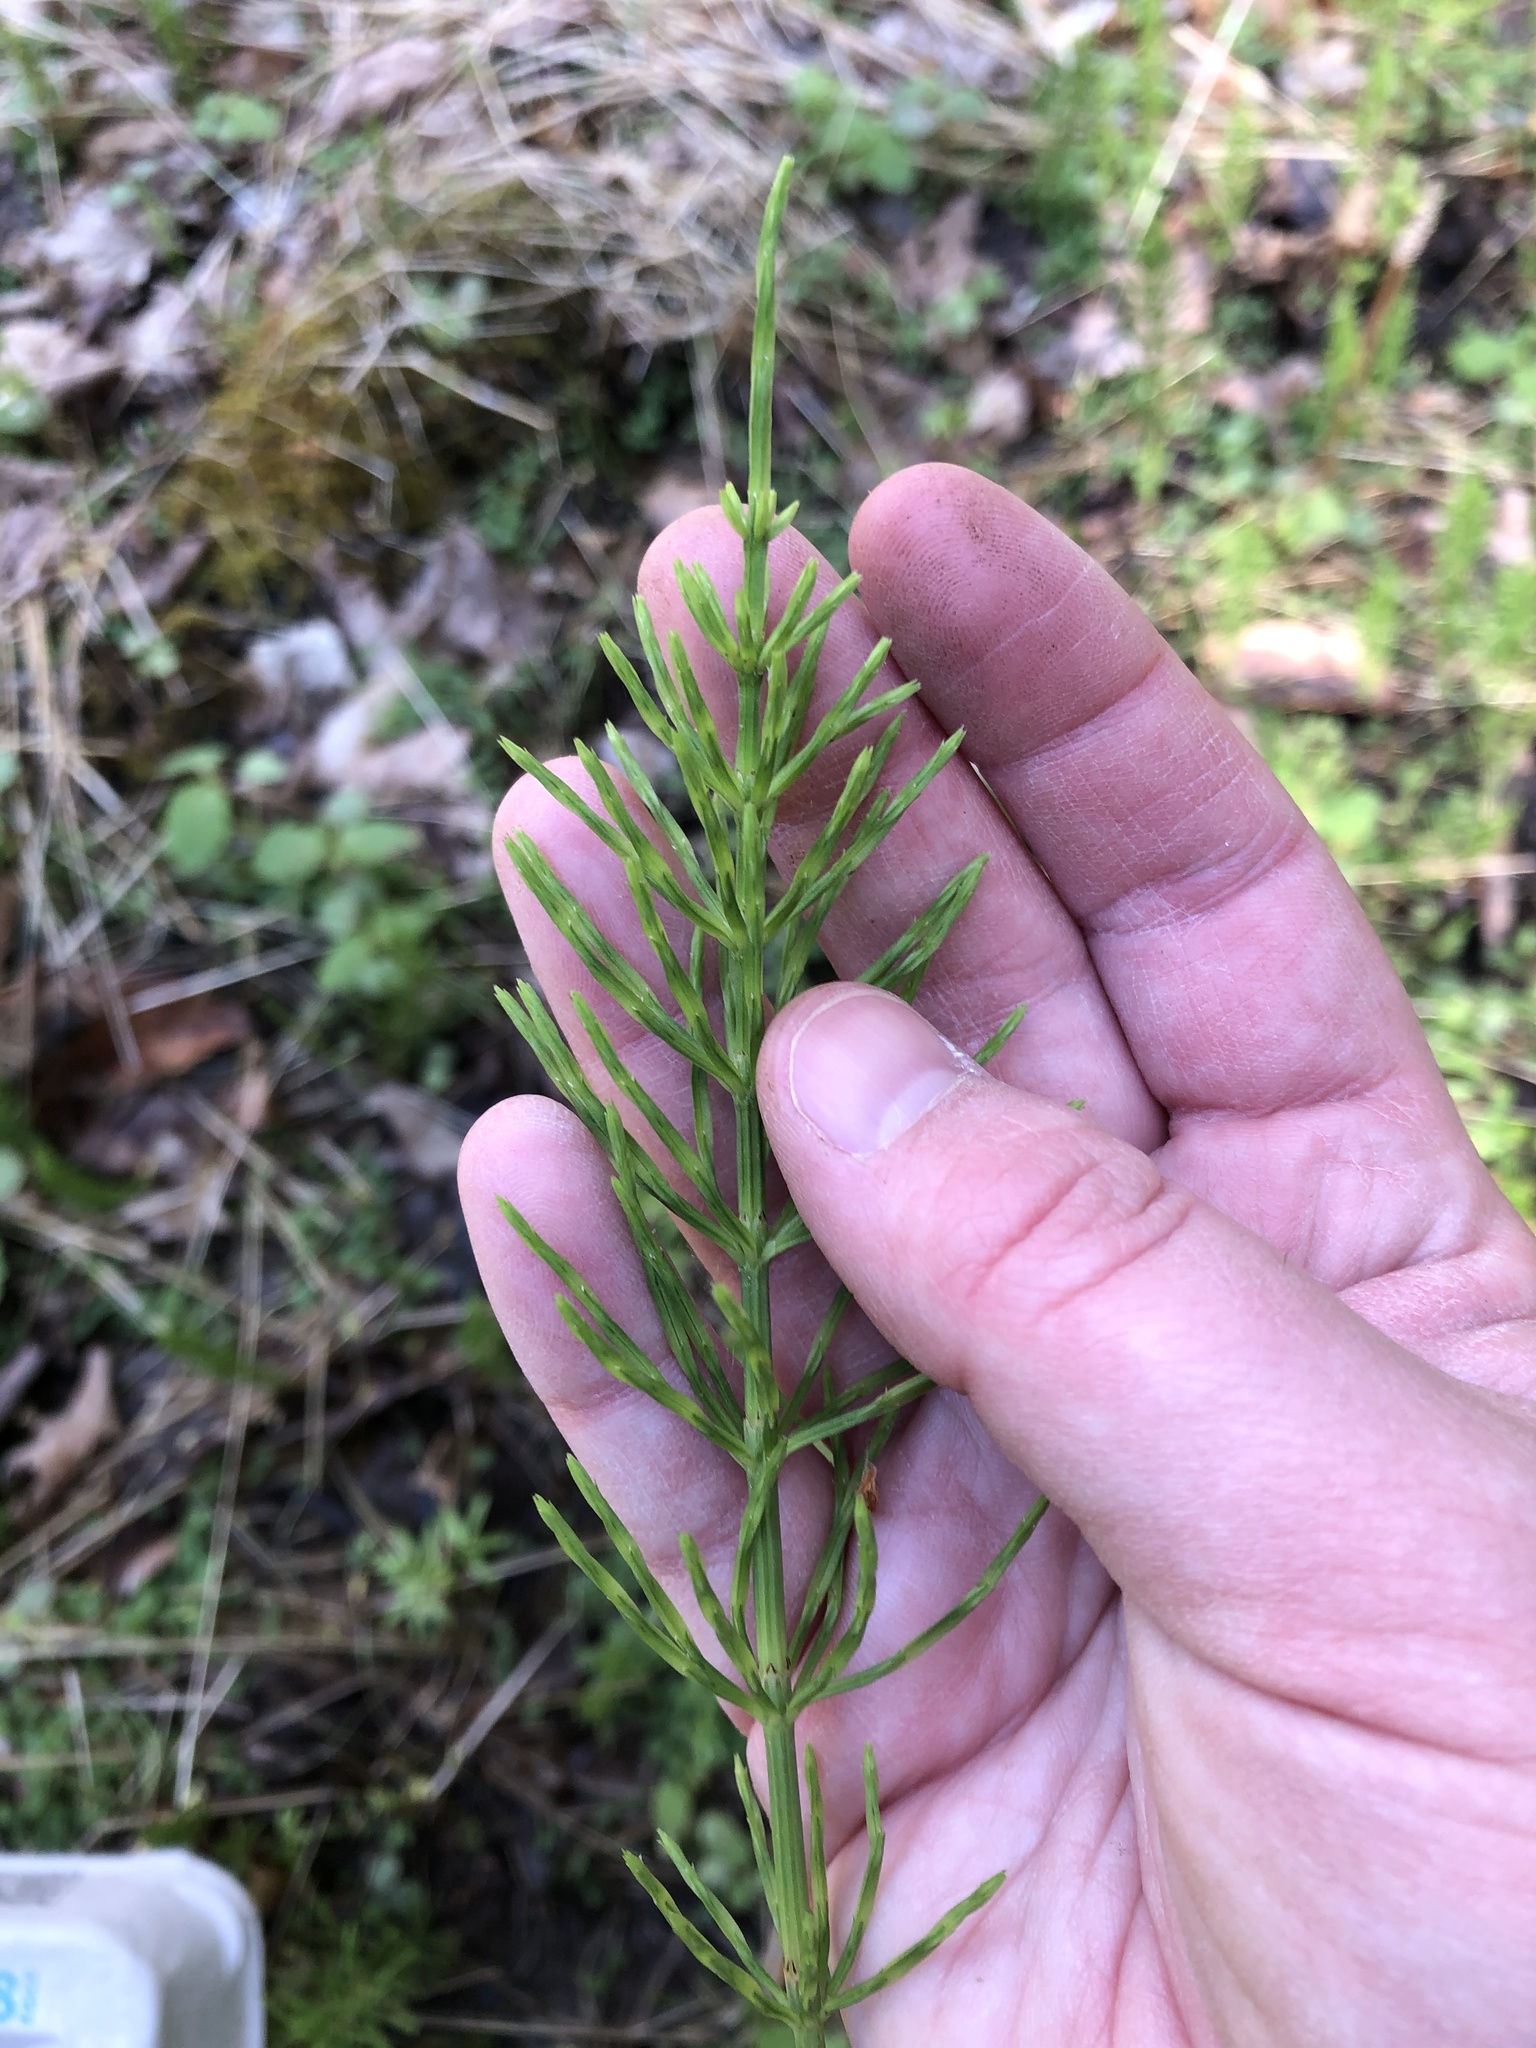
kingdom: Plantae
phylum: Tracheophyta
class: Polypodiopsida
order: Equisetales
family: Equisetaceae
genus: Equisetum
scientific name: Equisetum arvense
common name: Field horsetail
